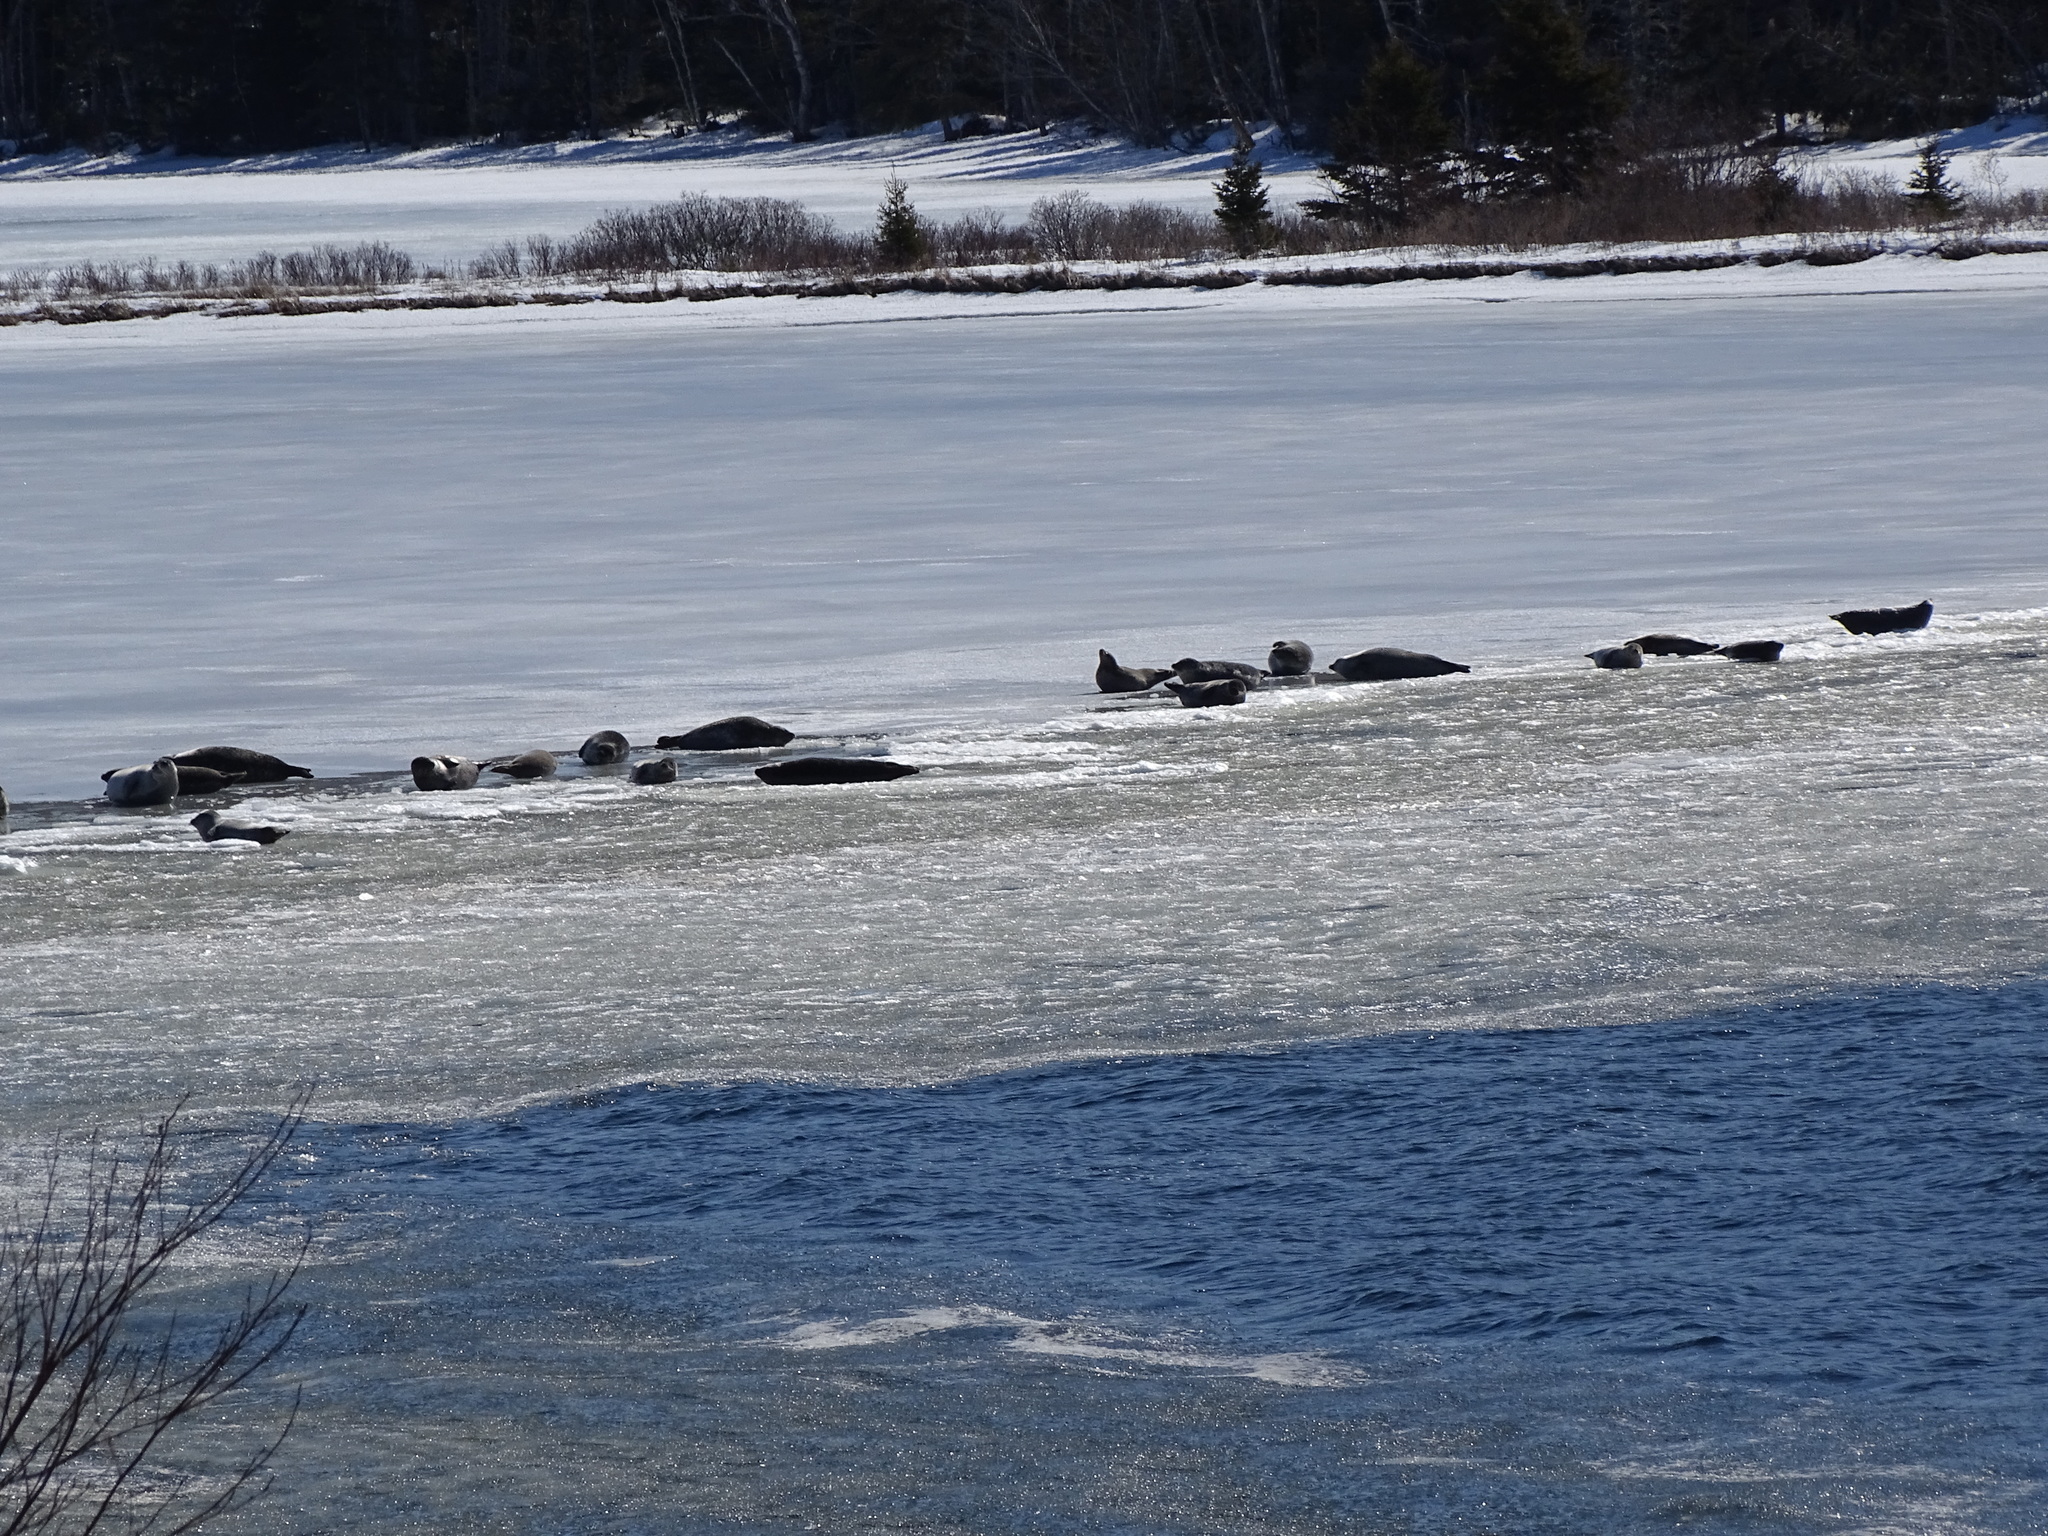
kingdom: Animalia
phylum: Chordata
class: Mammalia
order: Carnivora
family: Phocidae
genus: Phoca
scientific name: Phoca vitulina
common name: Harbor seal
